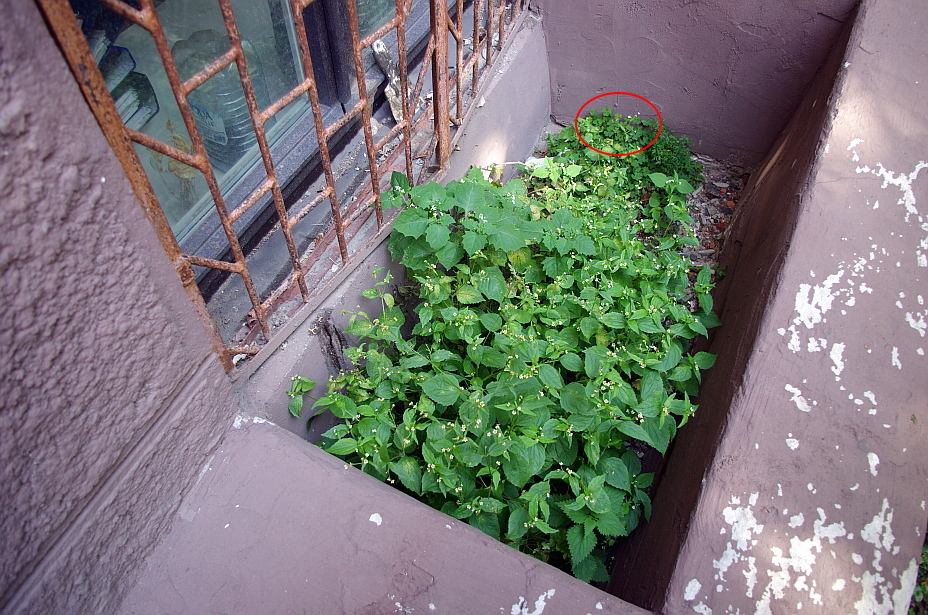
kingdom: Plantae
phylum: Tracheophyta
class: Magnoliopsida
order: Oxalidales
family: Oxalidaceae
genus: Oxalis
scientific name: Oxalis corniculata
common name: Procumbent yellow-sorrel
